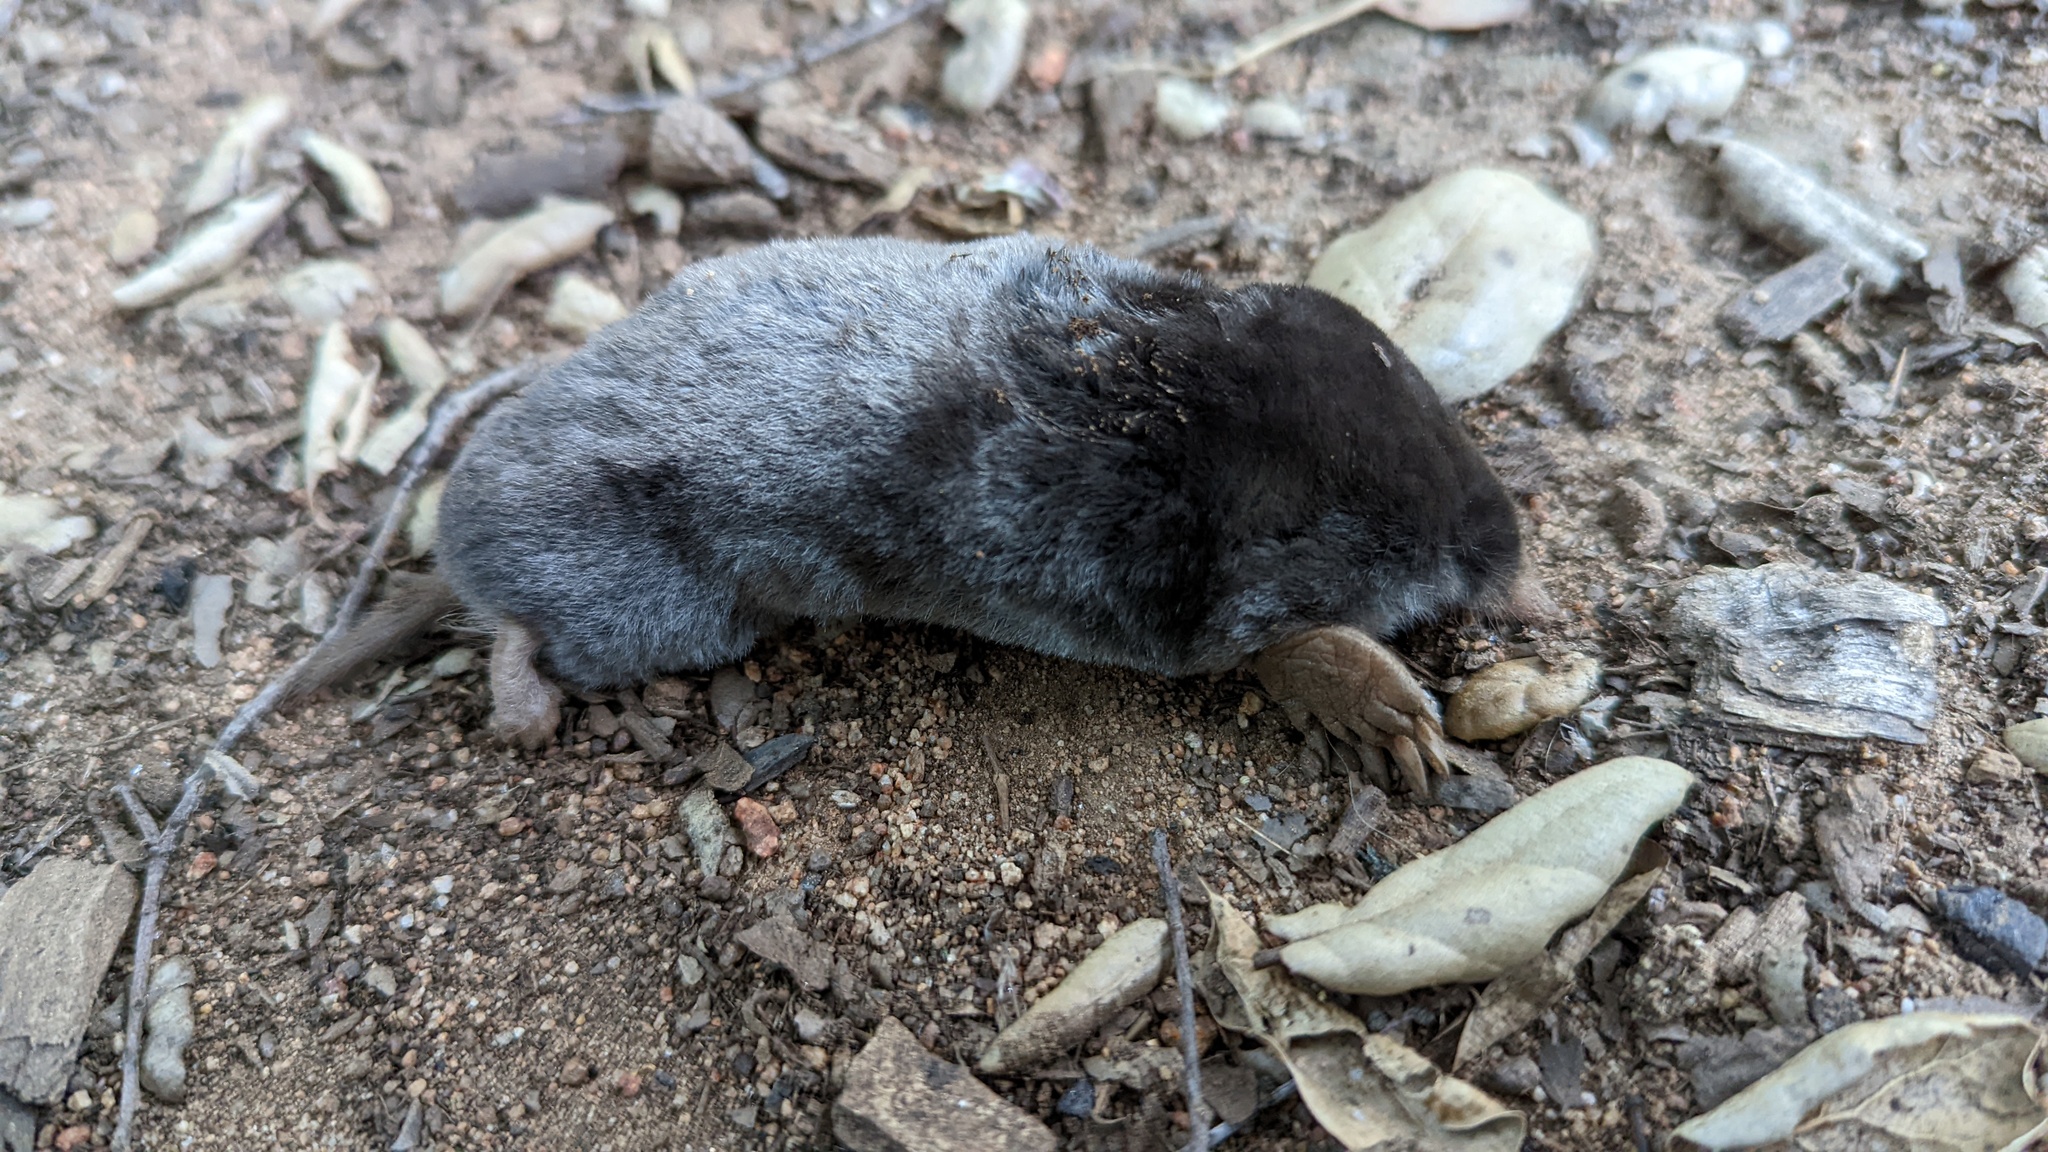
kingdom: Animalia
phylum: Chordata
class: Mammalia
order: Soricomorpha
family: Talpidae
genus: Scapanus
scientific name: Scapanus latimanus
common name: Broad-footed mole
